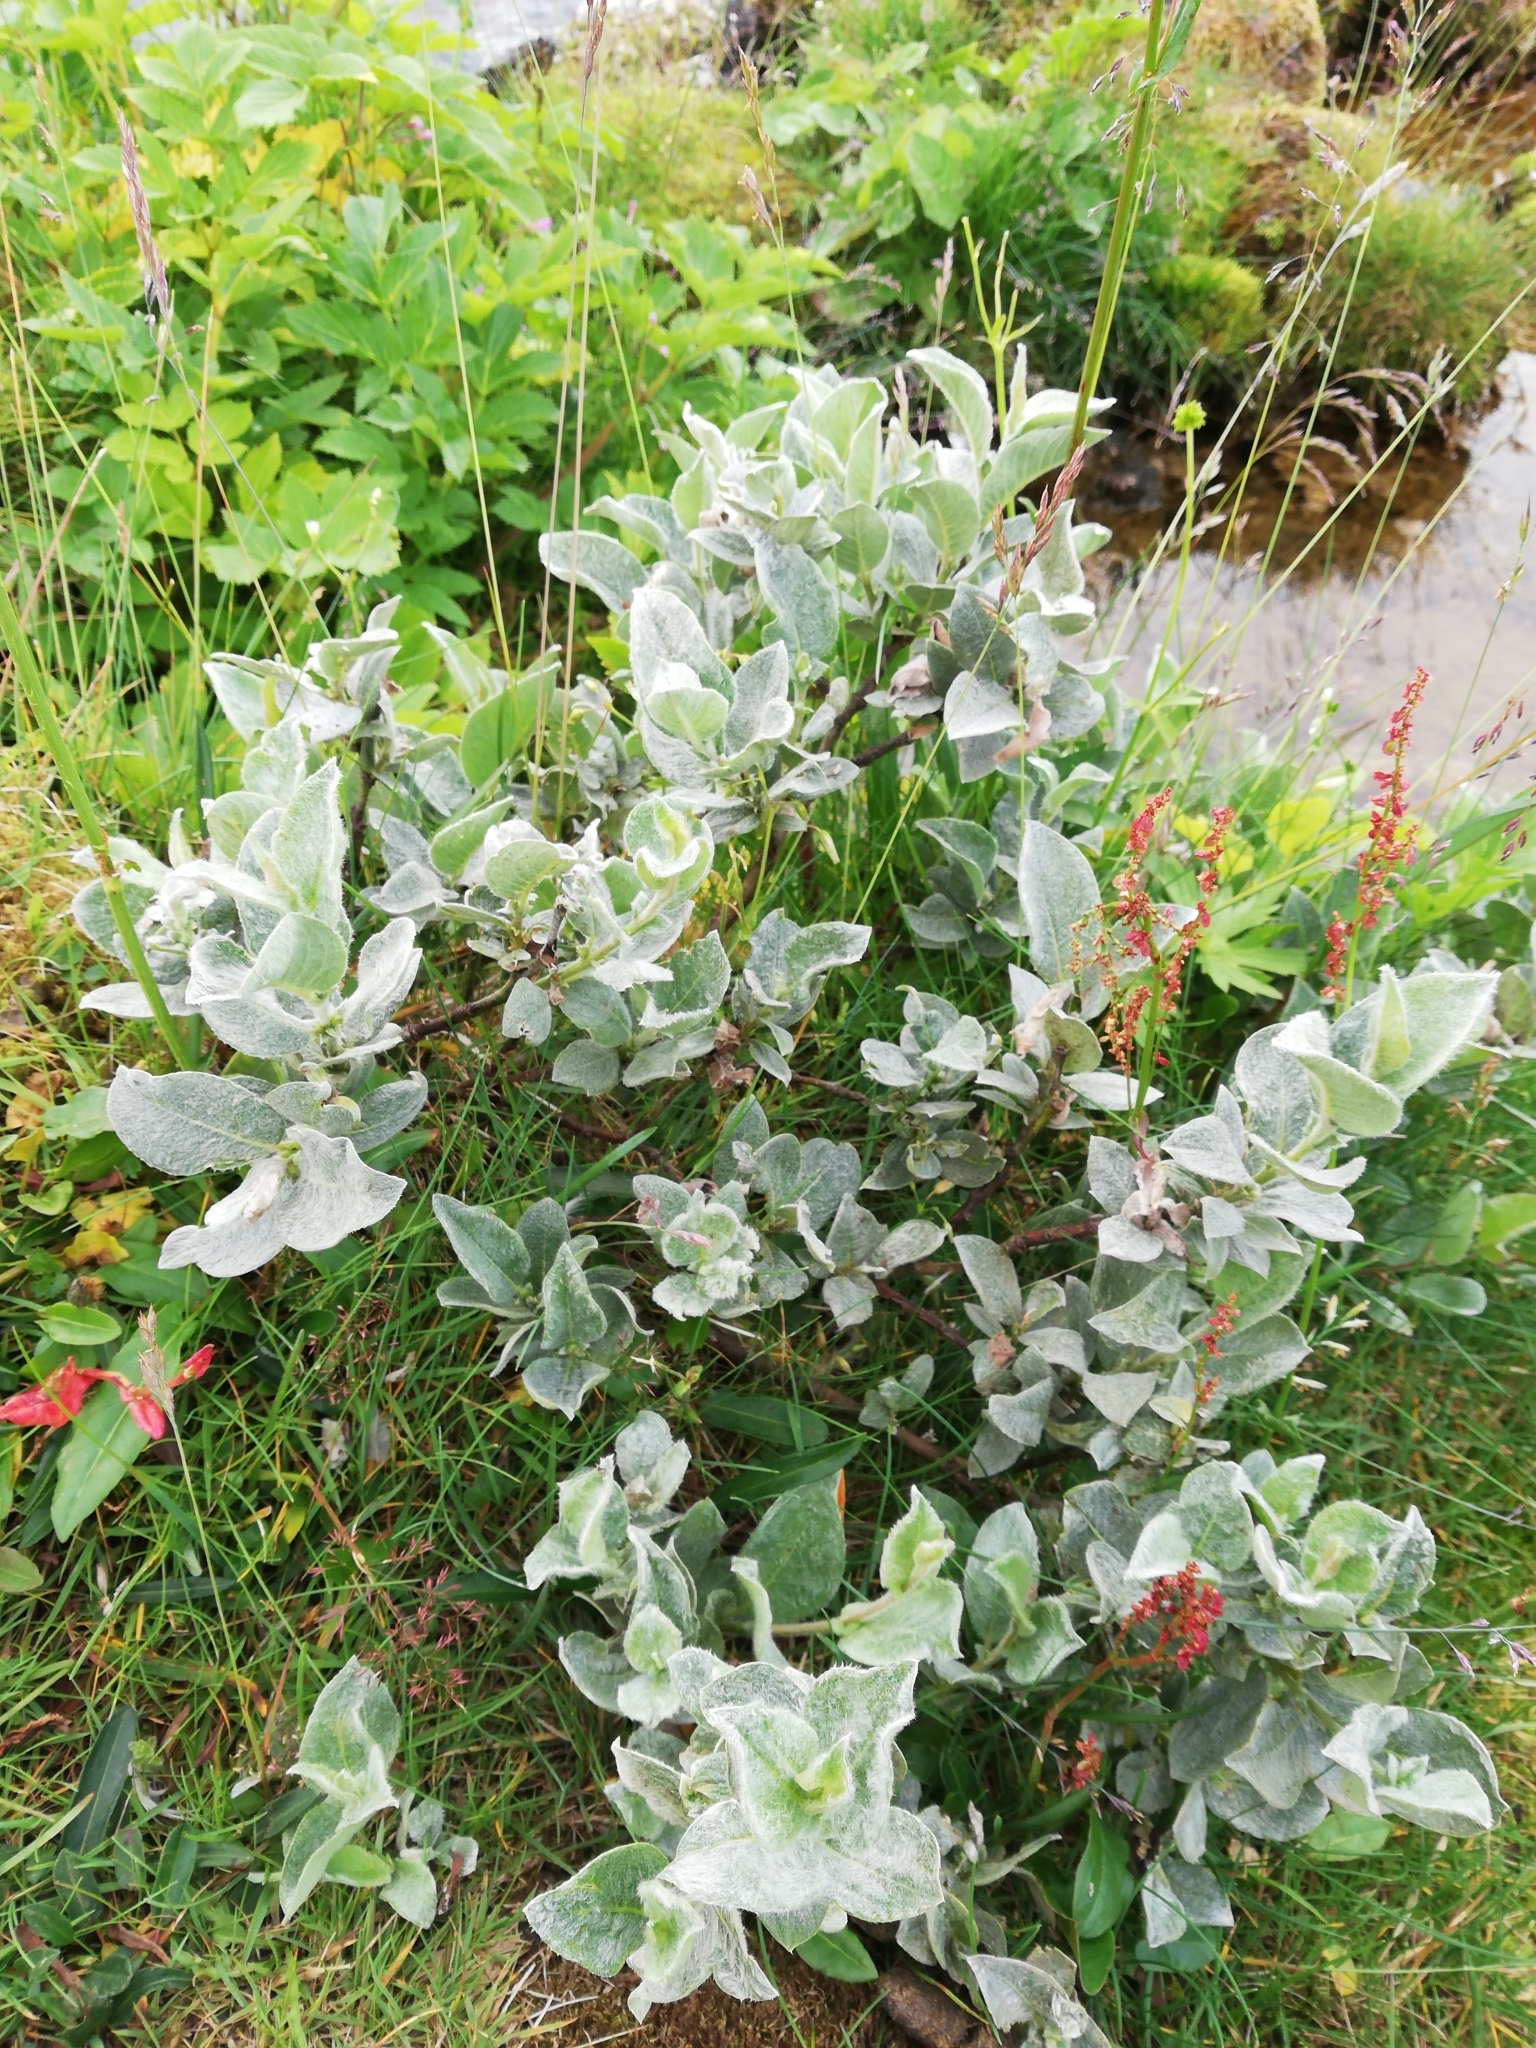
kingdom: Plantae
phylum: Tracheophyta
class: Magnoliopsida
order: Malpighiales
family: Salicaceae
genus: Salix
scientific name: Salix lanata
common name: Woolly willow
